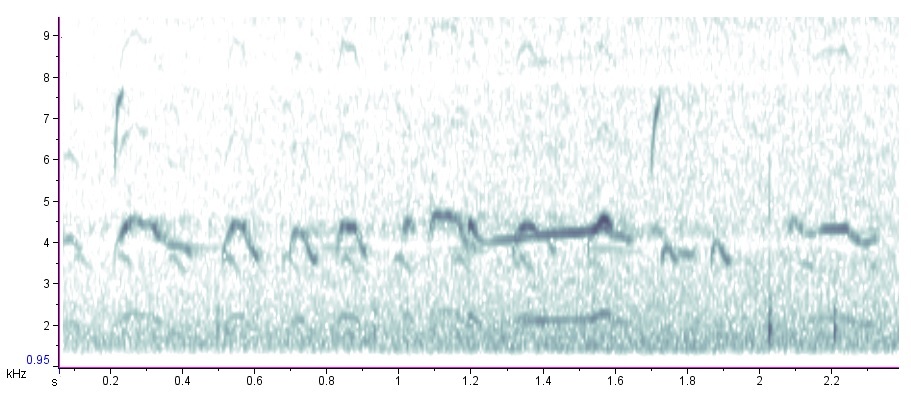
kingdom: Animalia
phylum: Chordata
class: Aves
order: Charadriiformes
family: Charadriidae
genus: Charadrius
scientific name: Charadrius vociferus
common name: Killdeer
